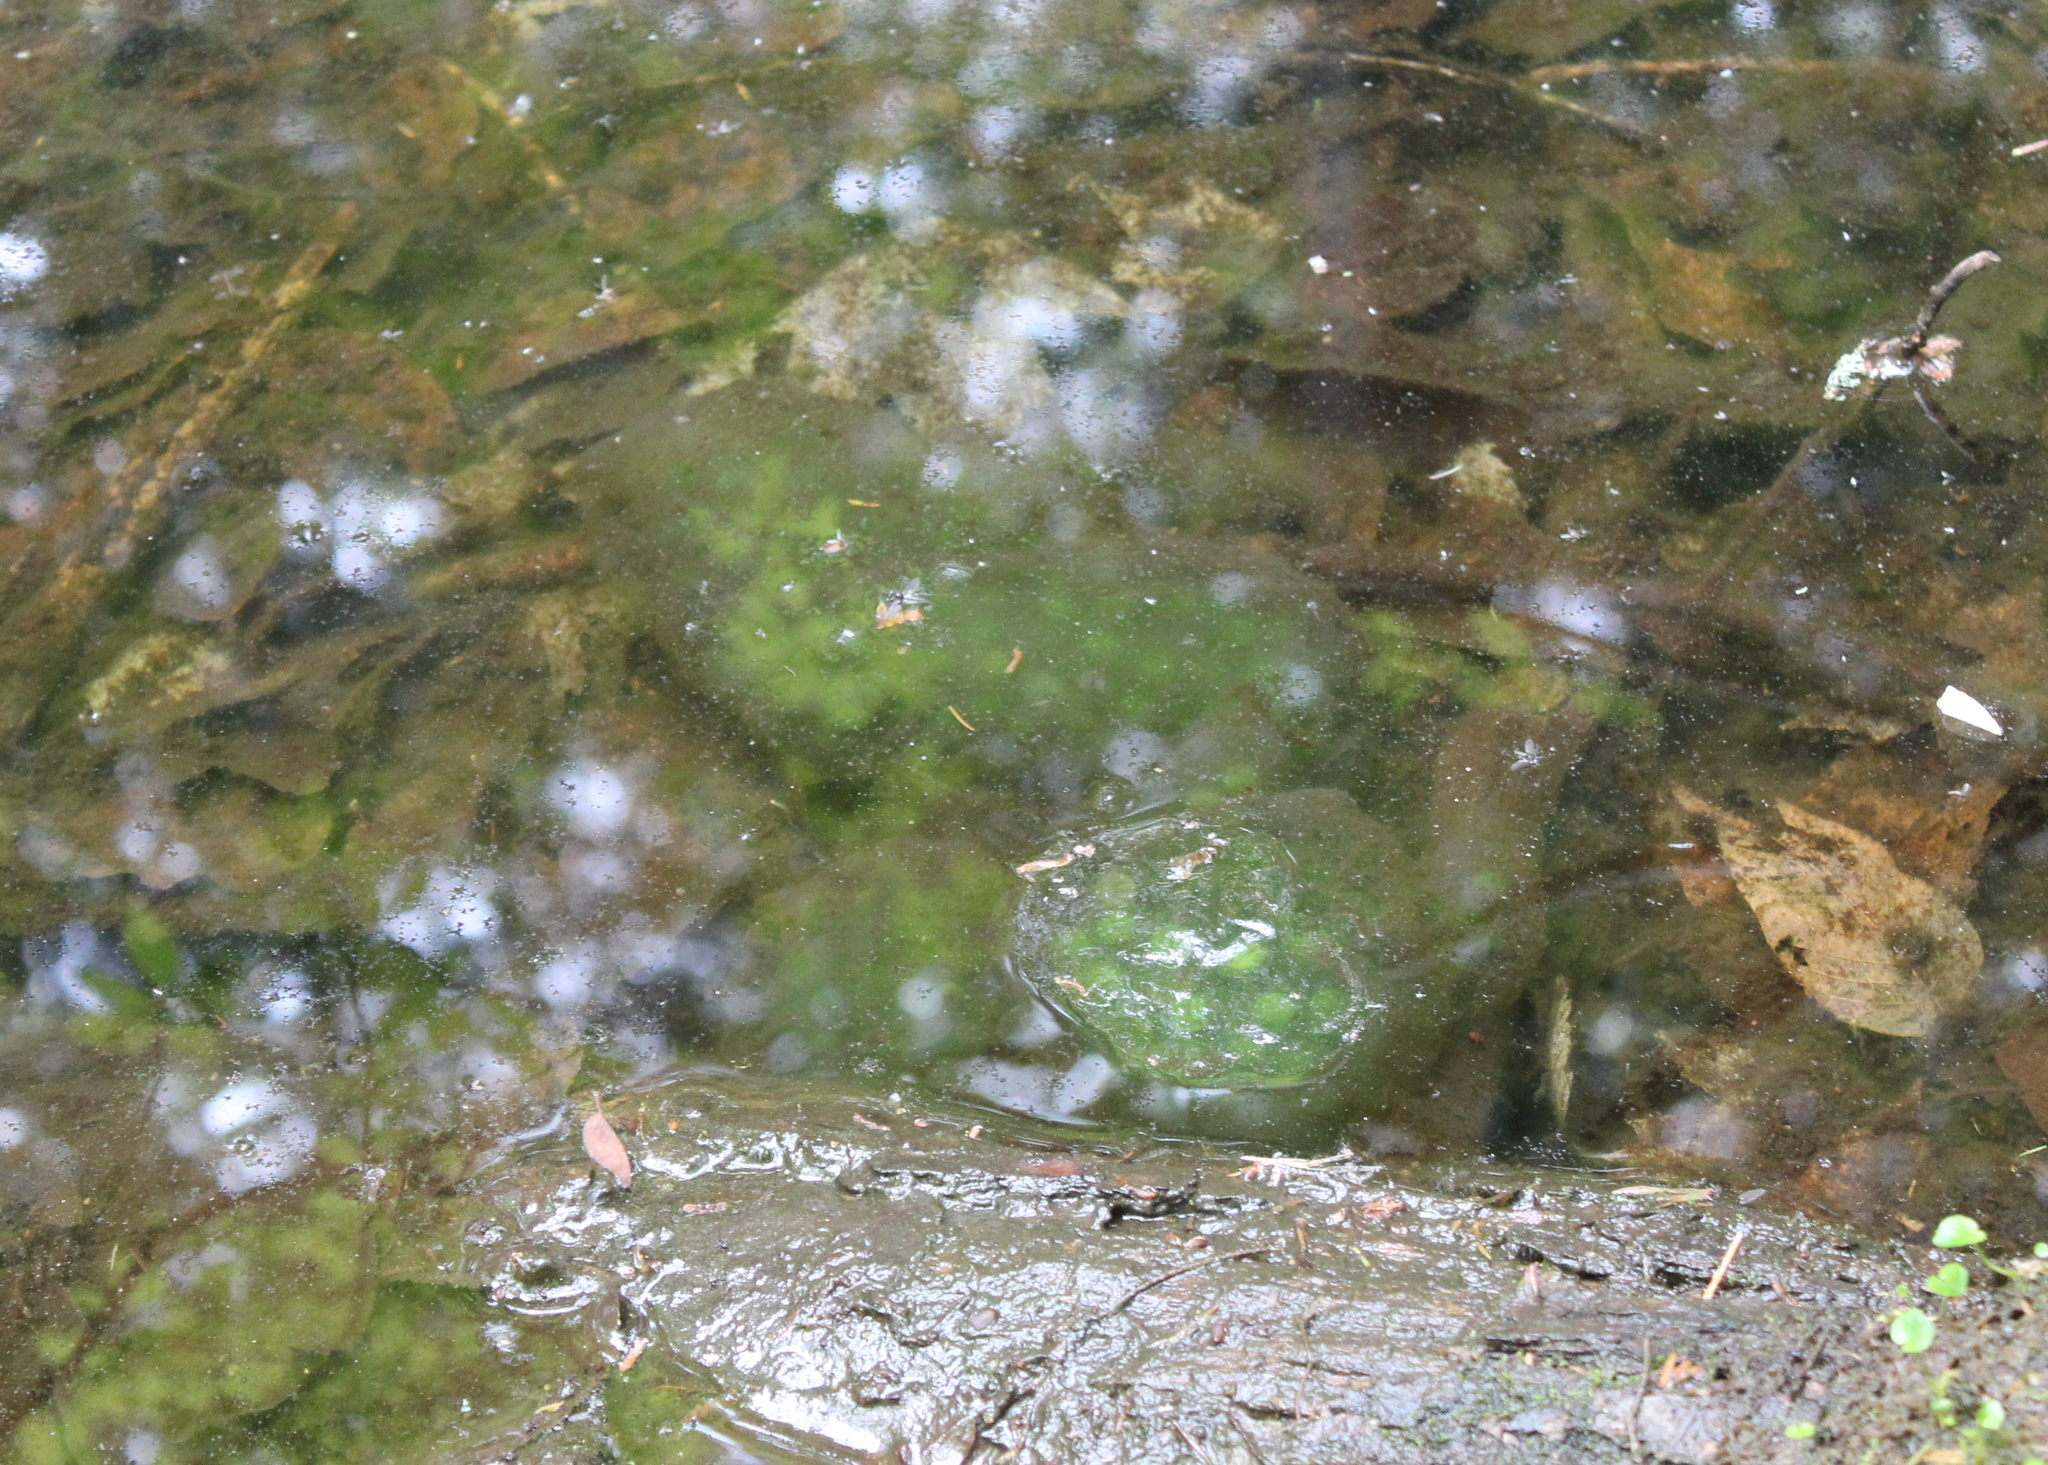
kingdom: Animalia
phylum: Chordata
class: Amphibia
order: Caudata
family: Ambystomatidae
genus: Ambystoma
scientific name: Ambystoma maculatum
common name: Spotted salamander
